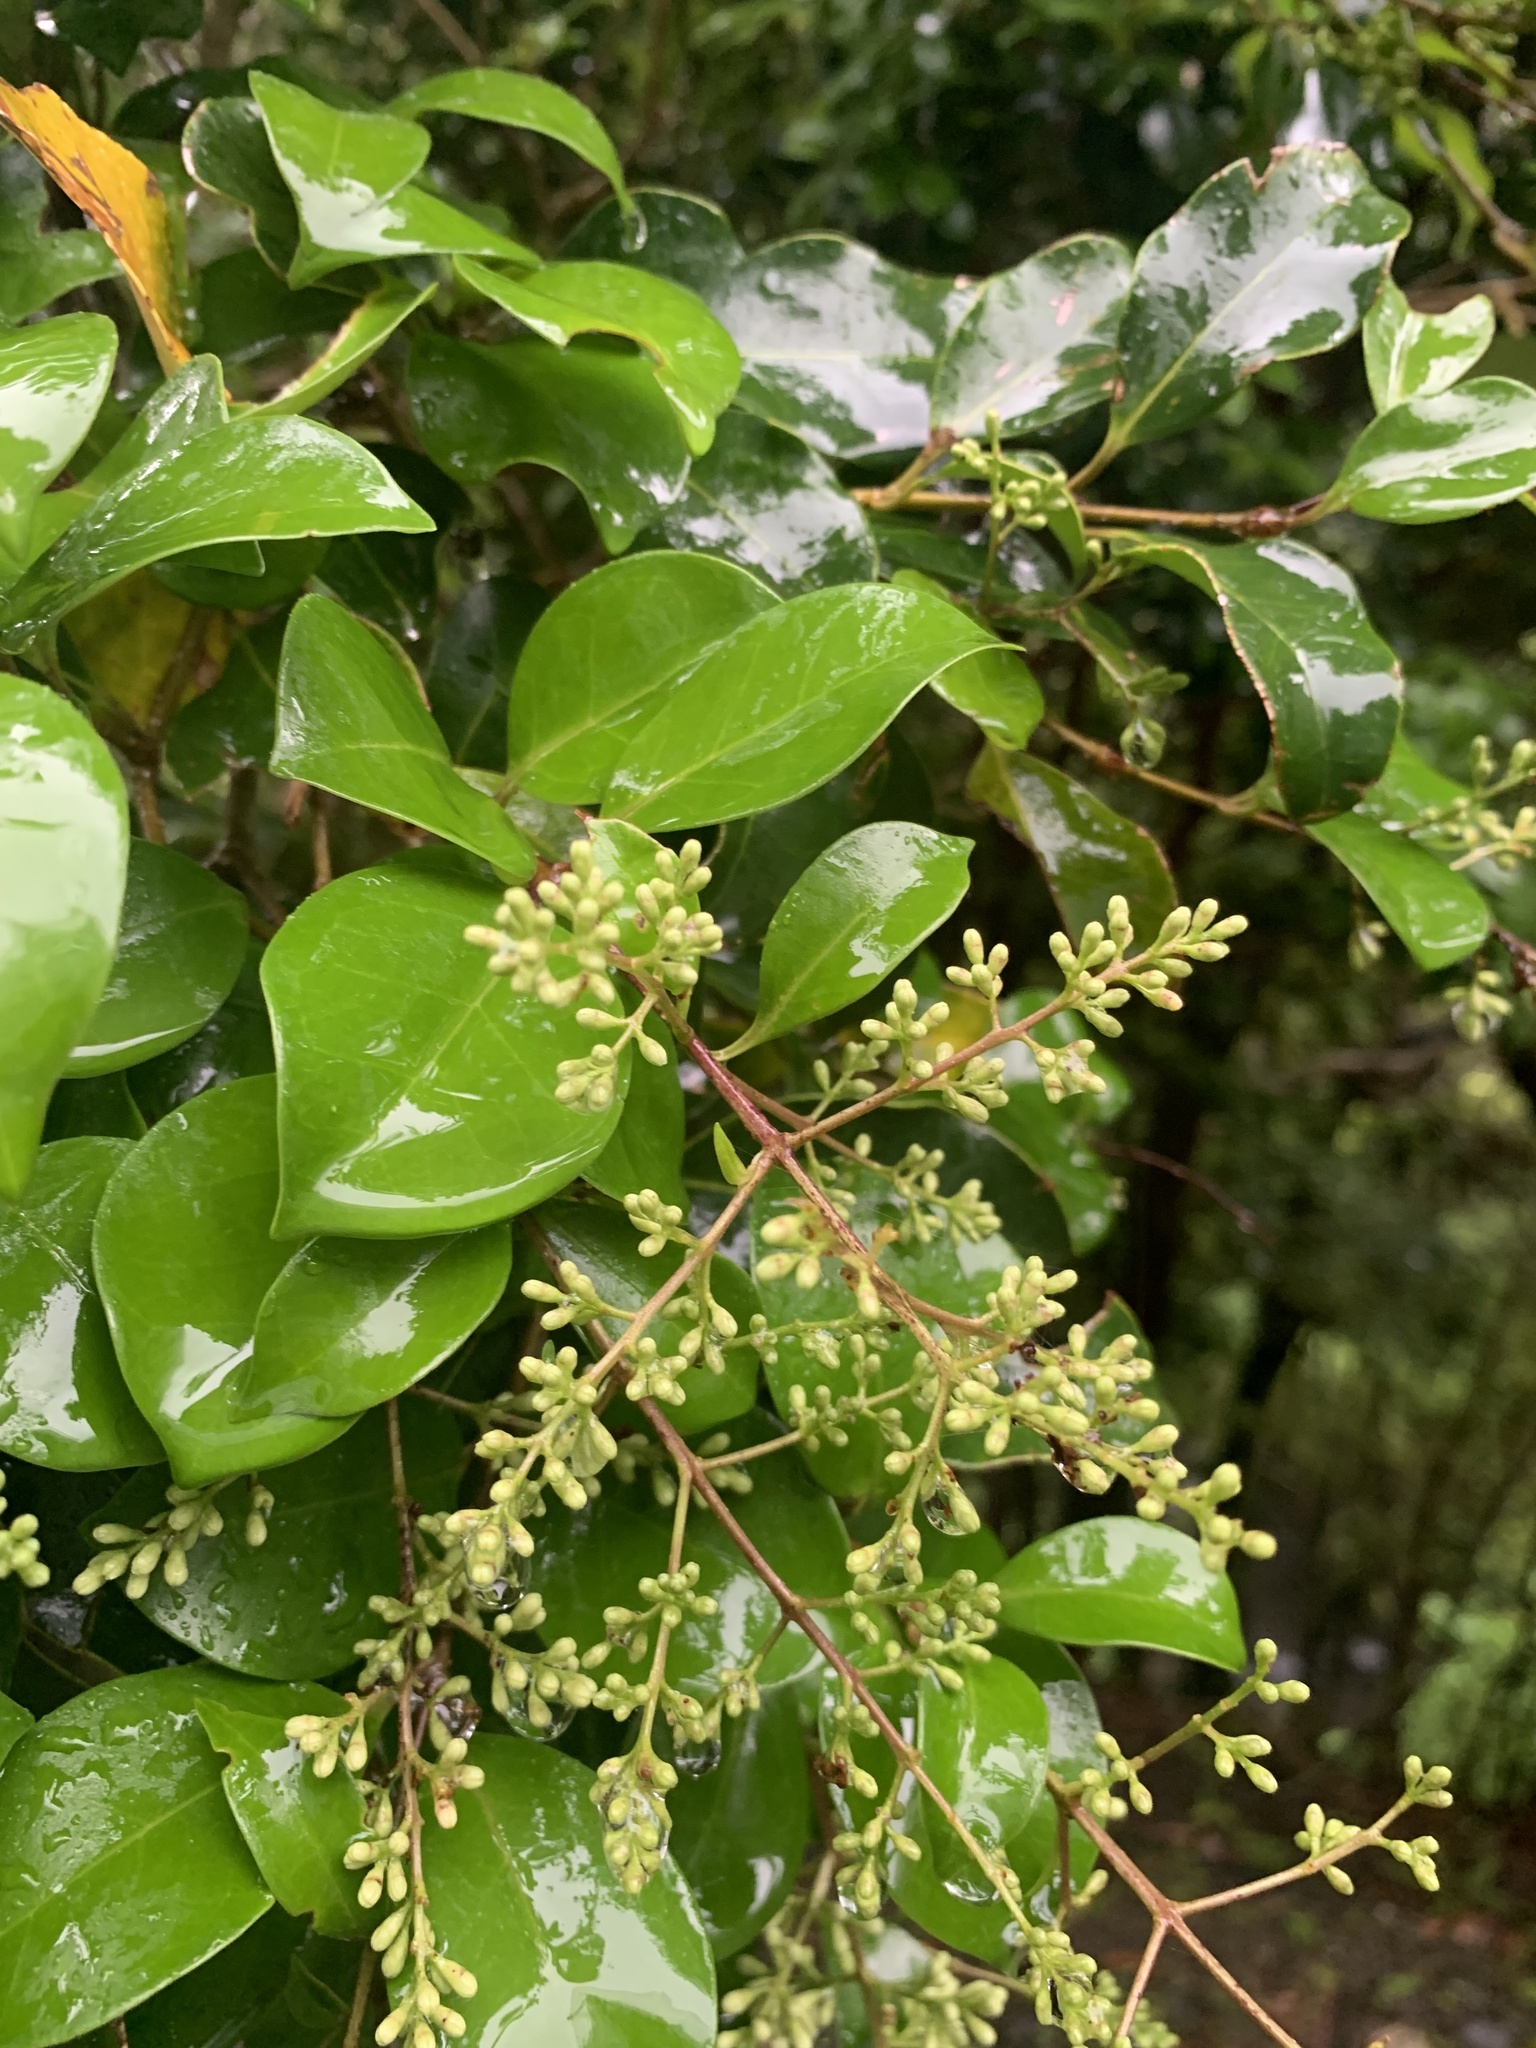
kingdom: Plantae
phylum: Tracheophyta
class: Magnoliopsida
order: Lamiales
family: Oleaceae
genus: Ligustrum
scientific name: Ligustrum japonicum
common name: Japanese privet
